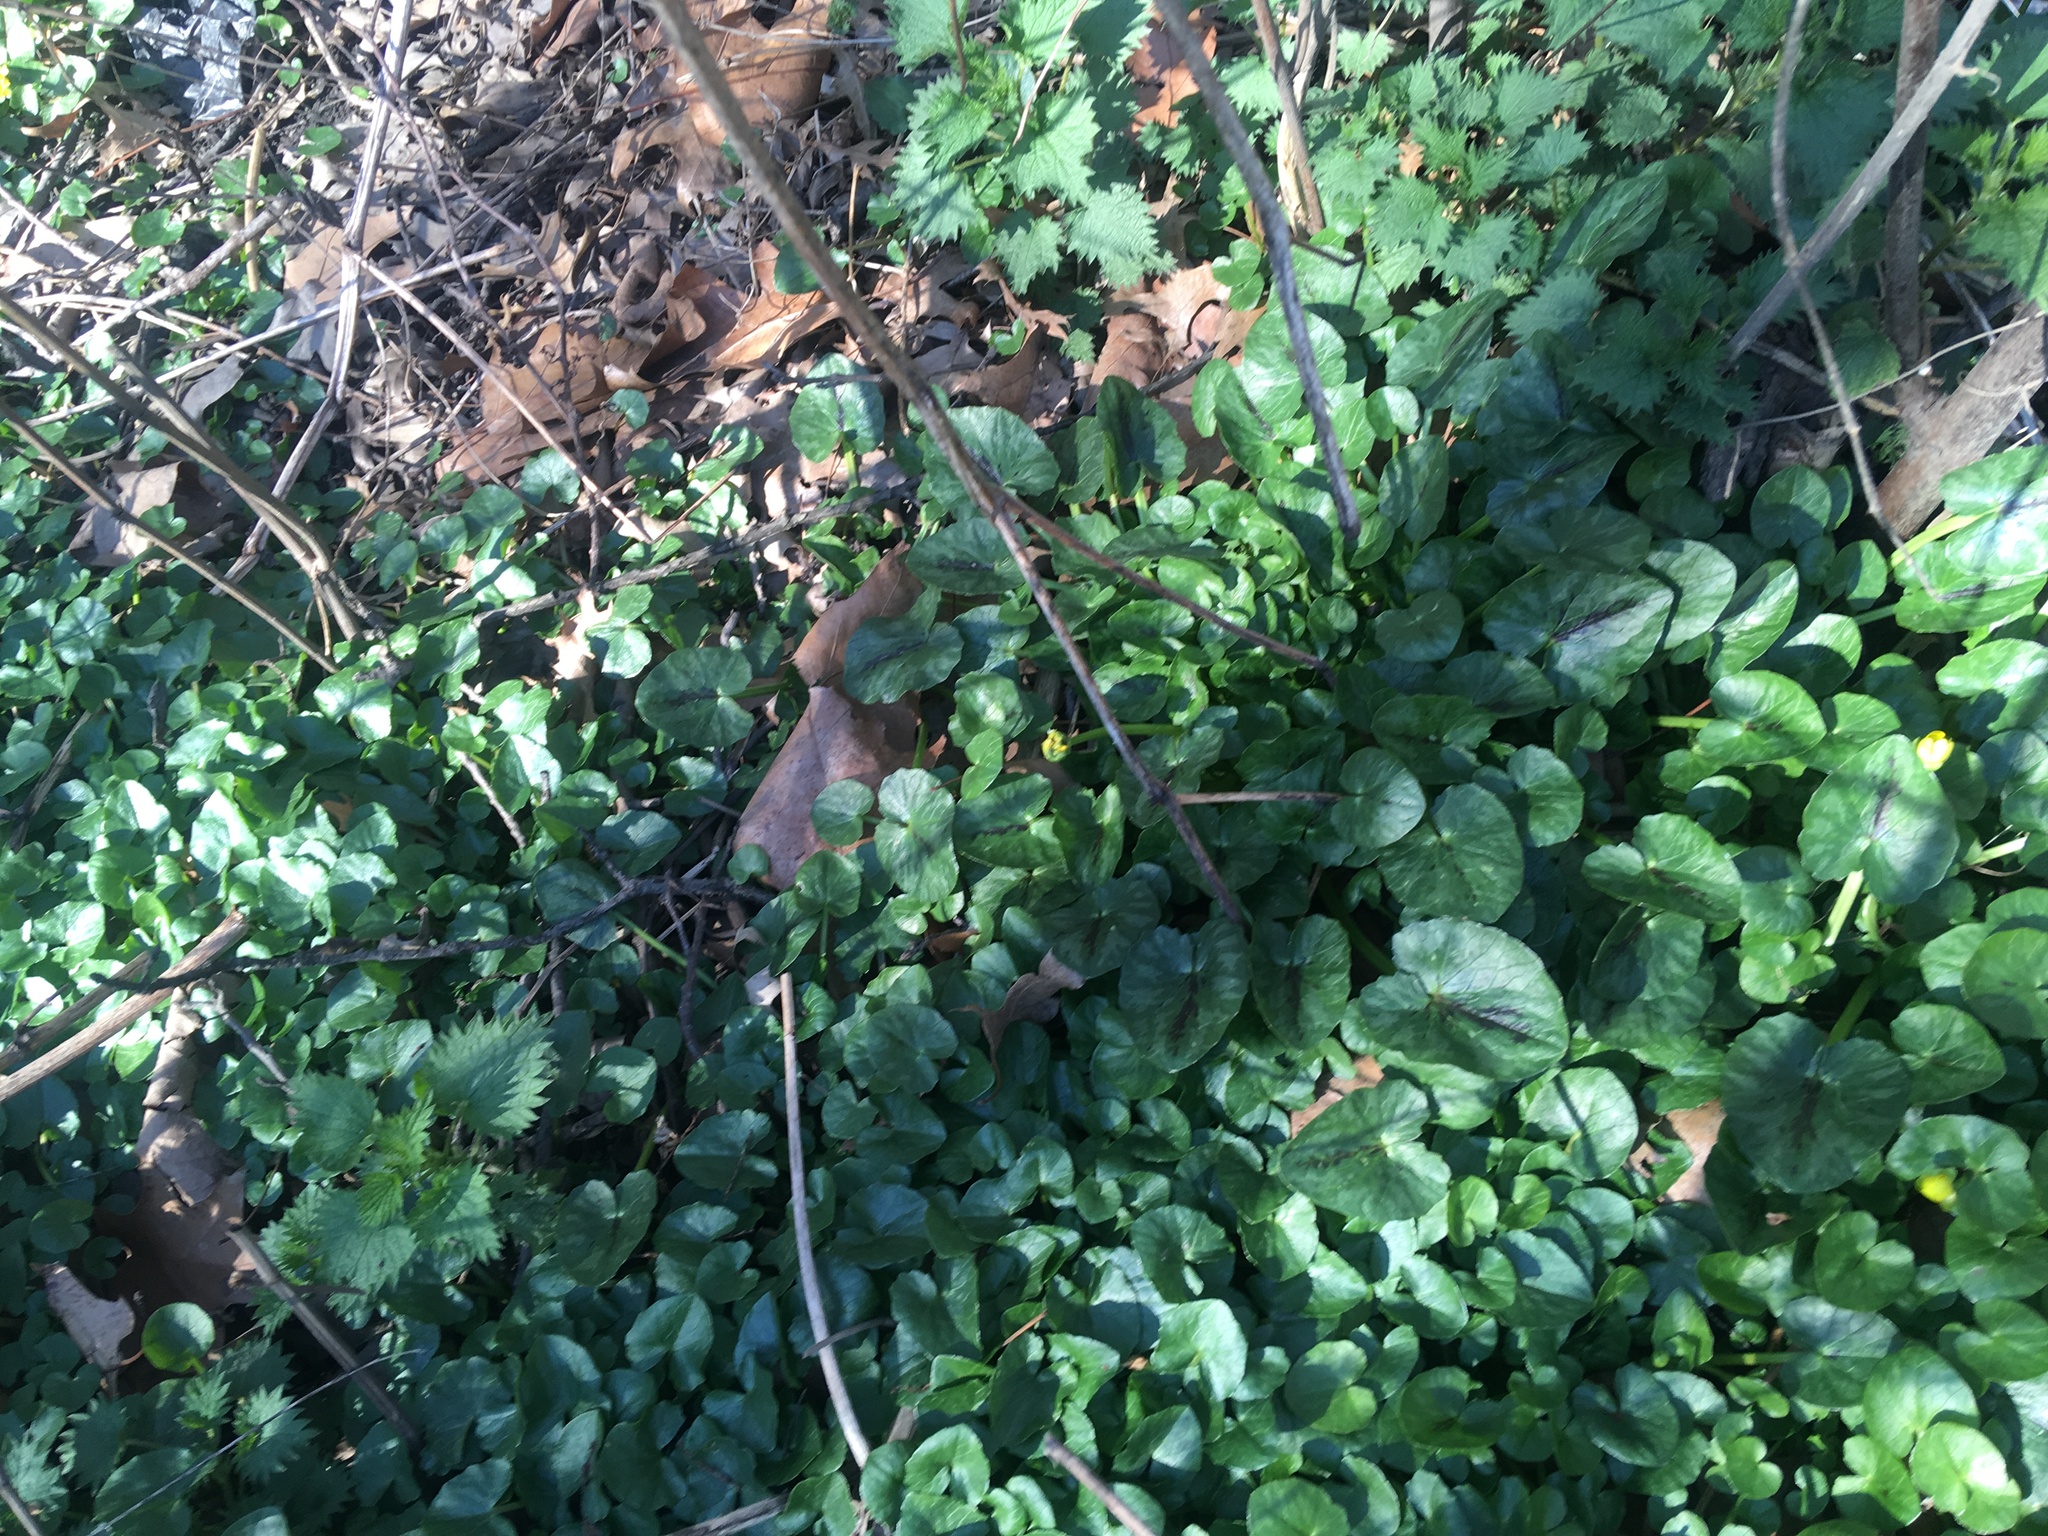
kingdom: Plantae
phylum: Tracheophyta
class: Magnoliopsida
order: Ranunculales
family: Ranunculaceae
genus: Ficaria
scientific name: Ficaria verna
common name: Lesser celandine
